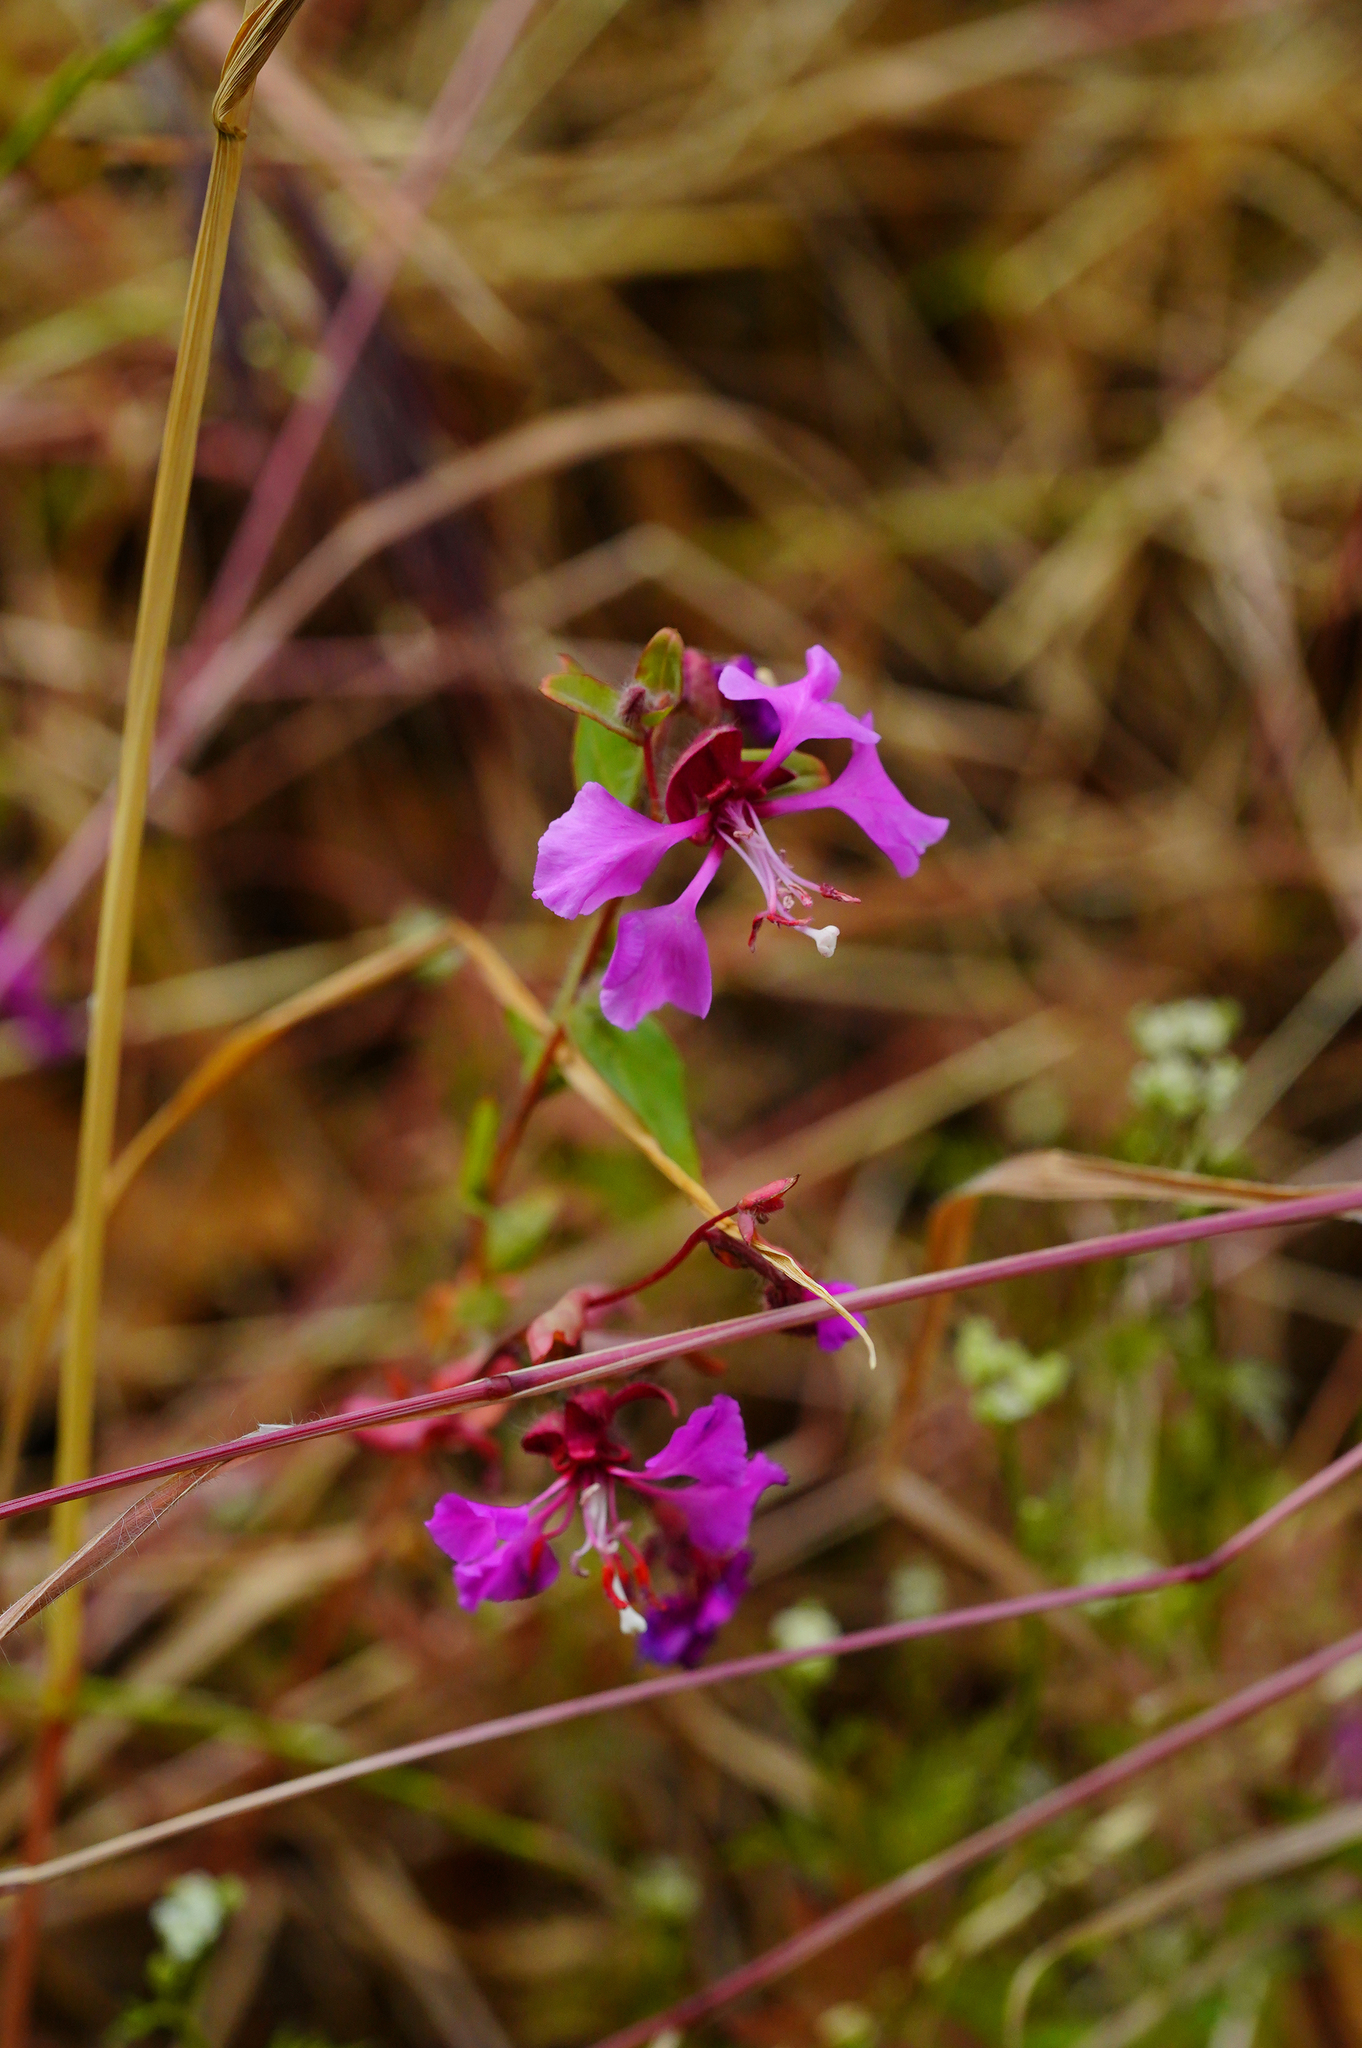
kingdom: Plantae
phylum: Tracheophyta
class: Magnoliopsida
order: Myrtales
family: Onagraceae
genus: Clarkia
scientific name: Clarkia unguiculata
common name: Clarkia
